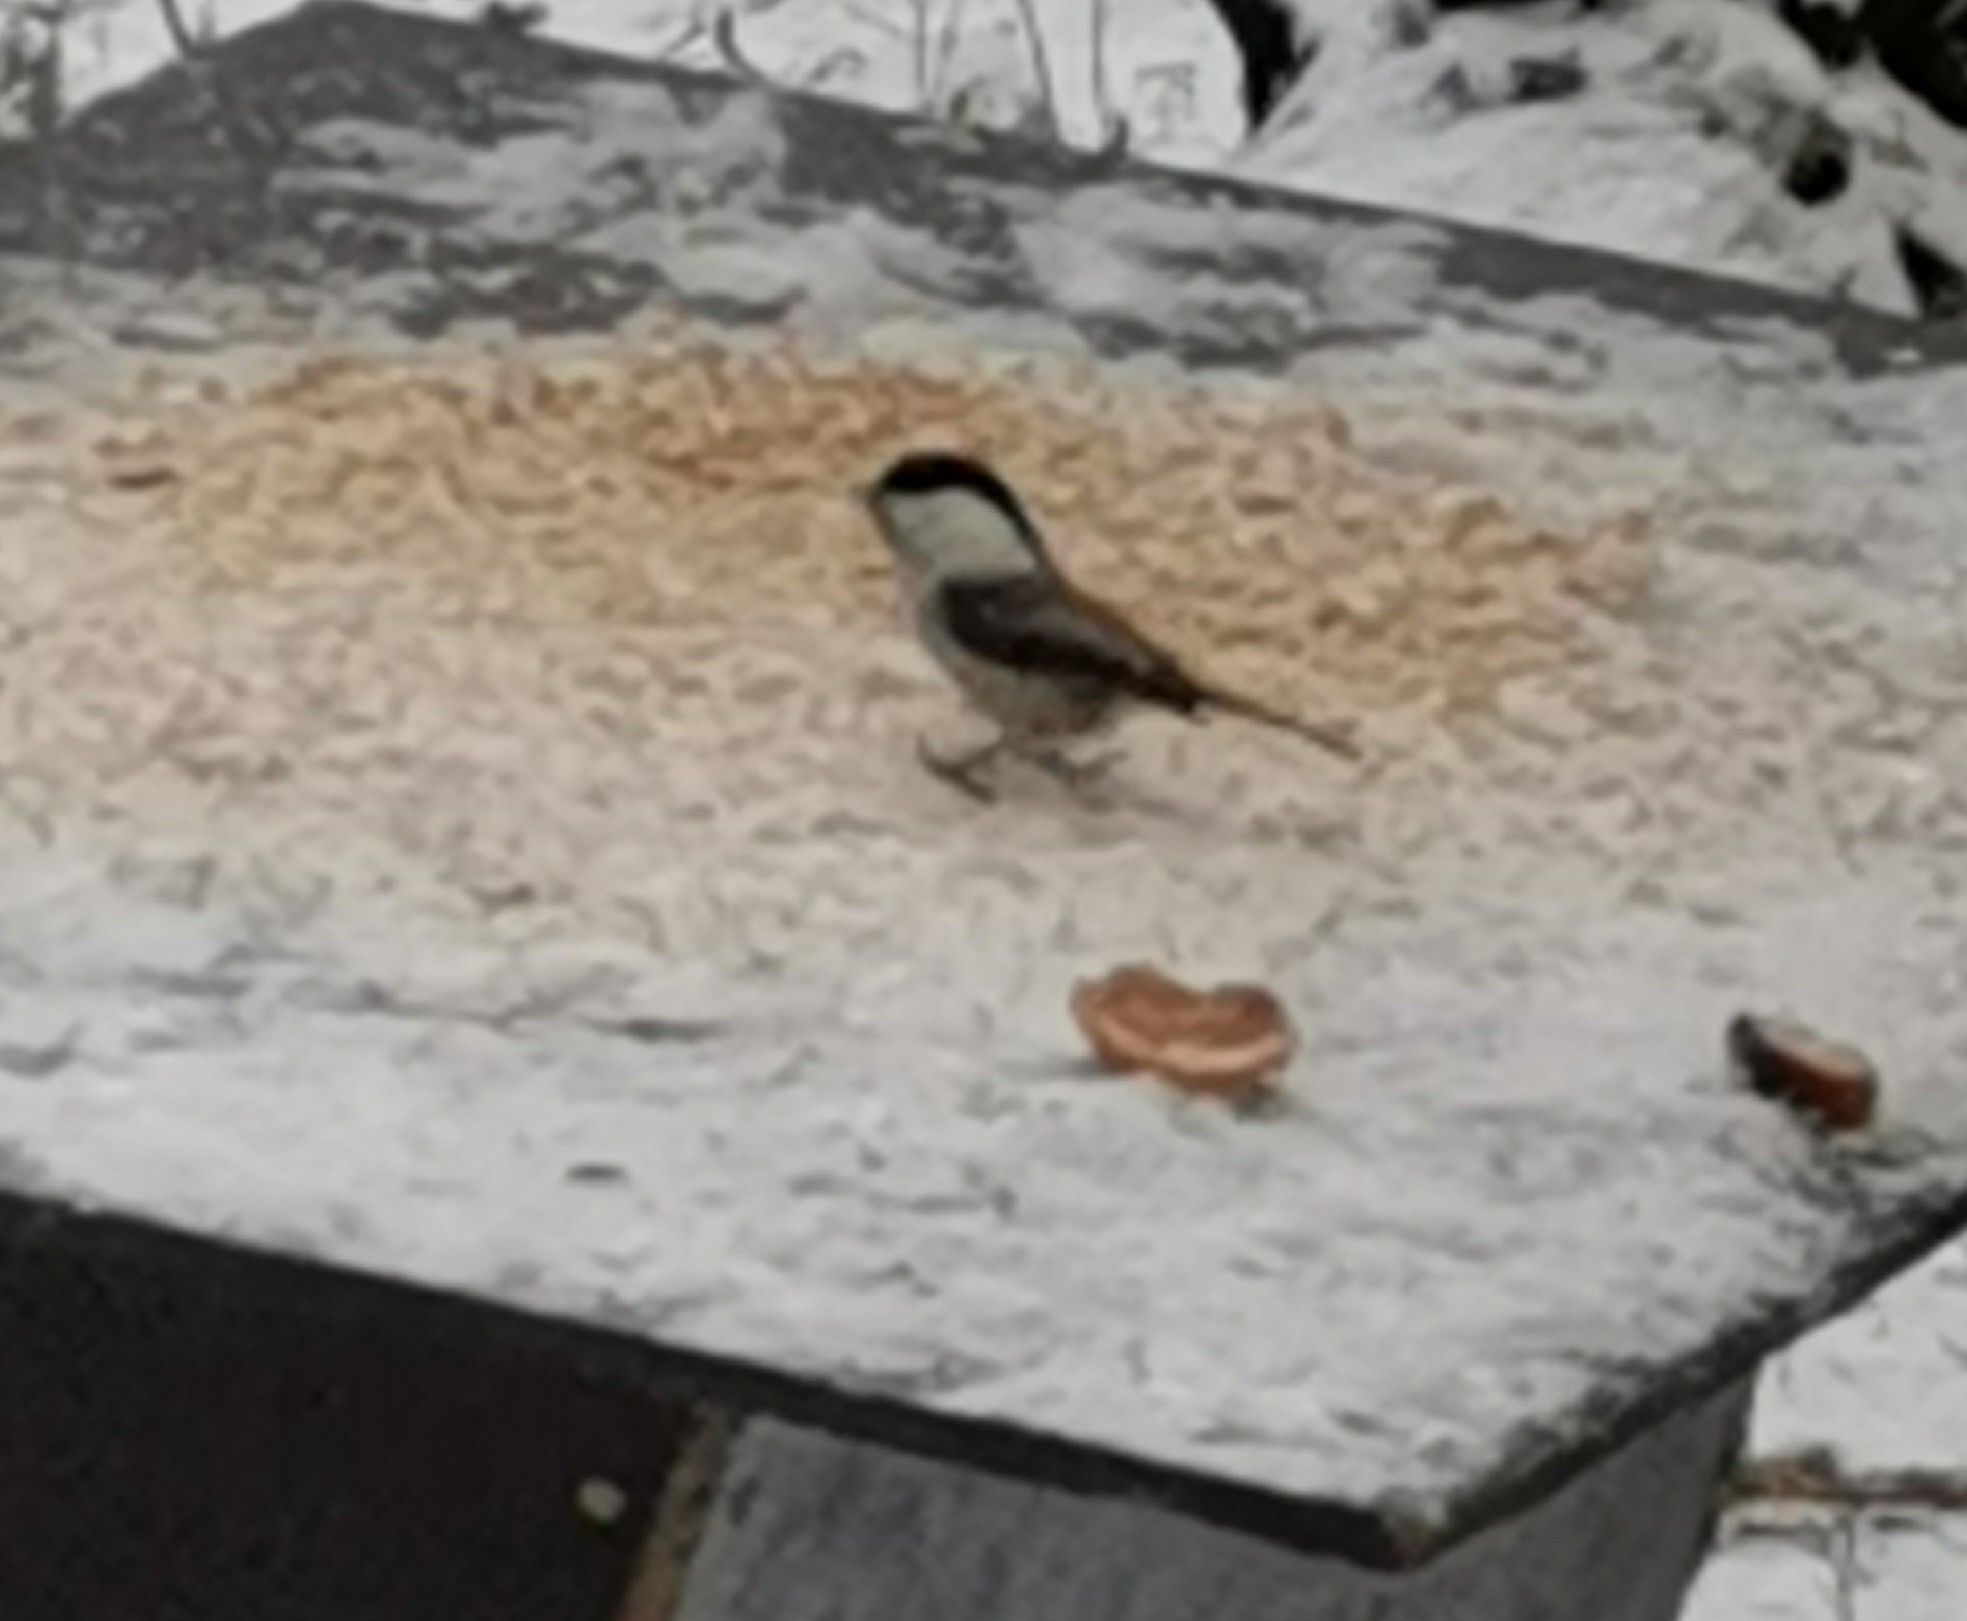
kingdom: Animalia
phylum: Chordata
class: Aves
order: Passeriformes
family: Paridae
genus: Poecile
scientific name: Poecile montanus
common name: Willow tit
